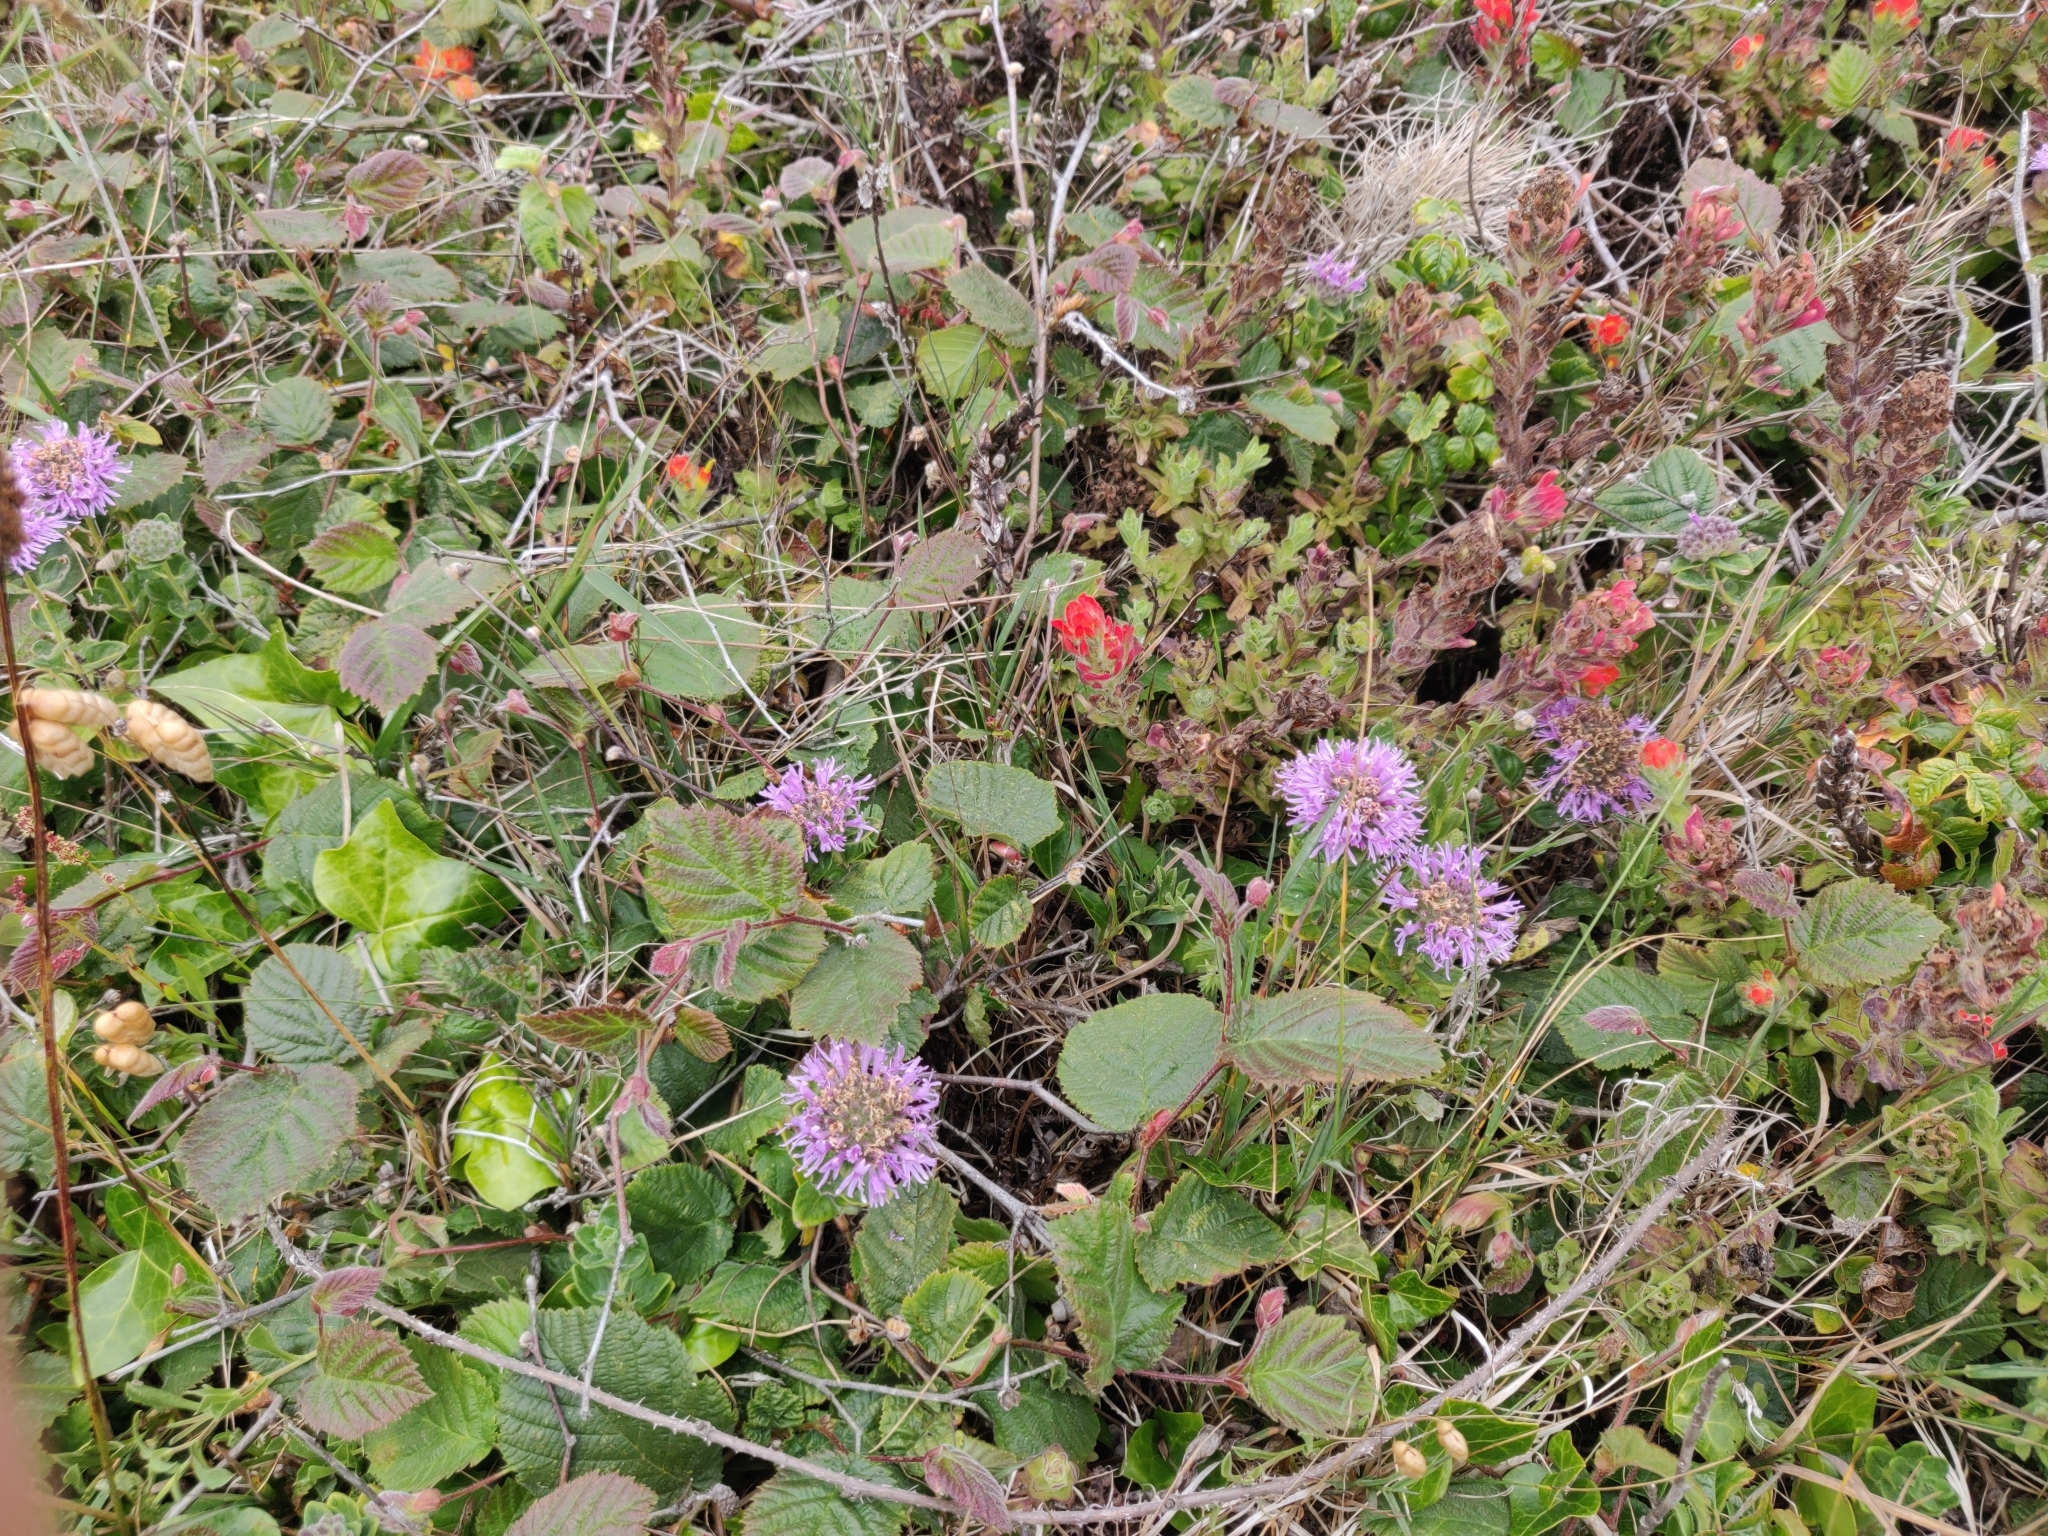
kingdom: Plantae
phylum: Tracheophyta
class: Magnoliopsida
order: Lamiales
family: Lamiaceae
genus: Monardella
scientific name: Monardella odoratissima
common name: Pacific monardella
